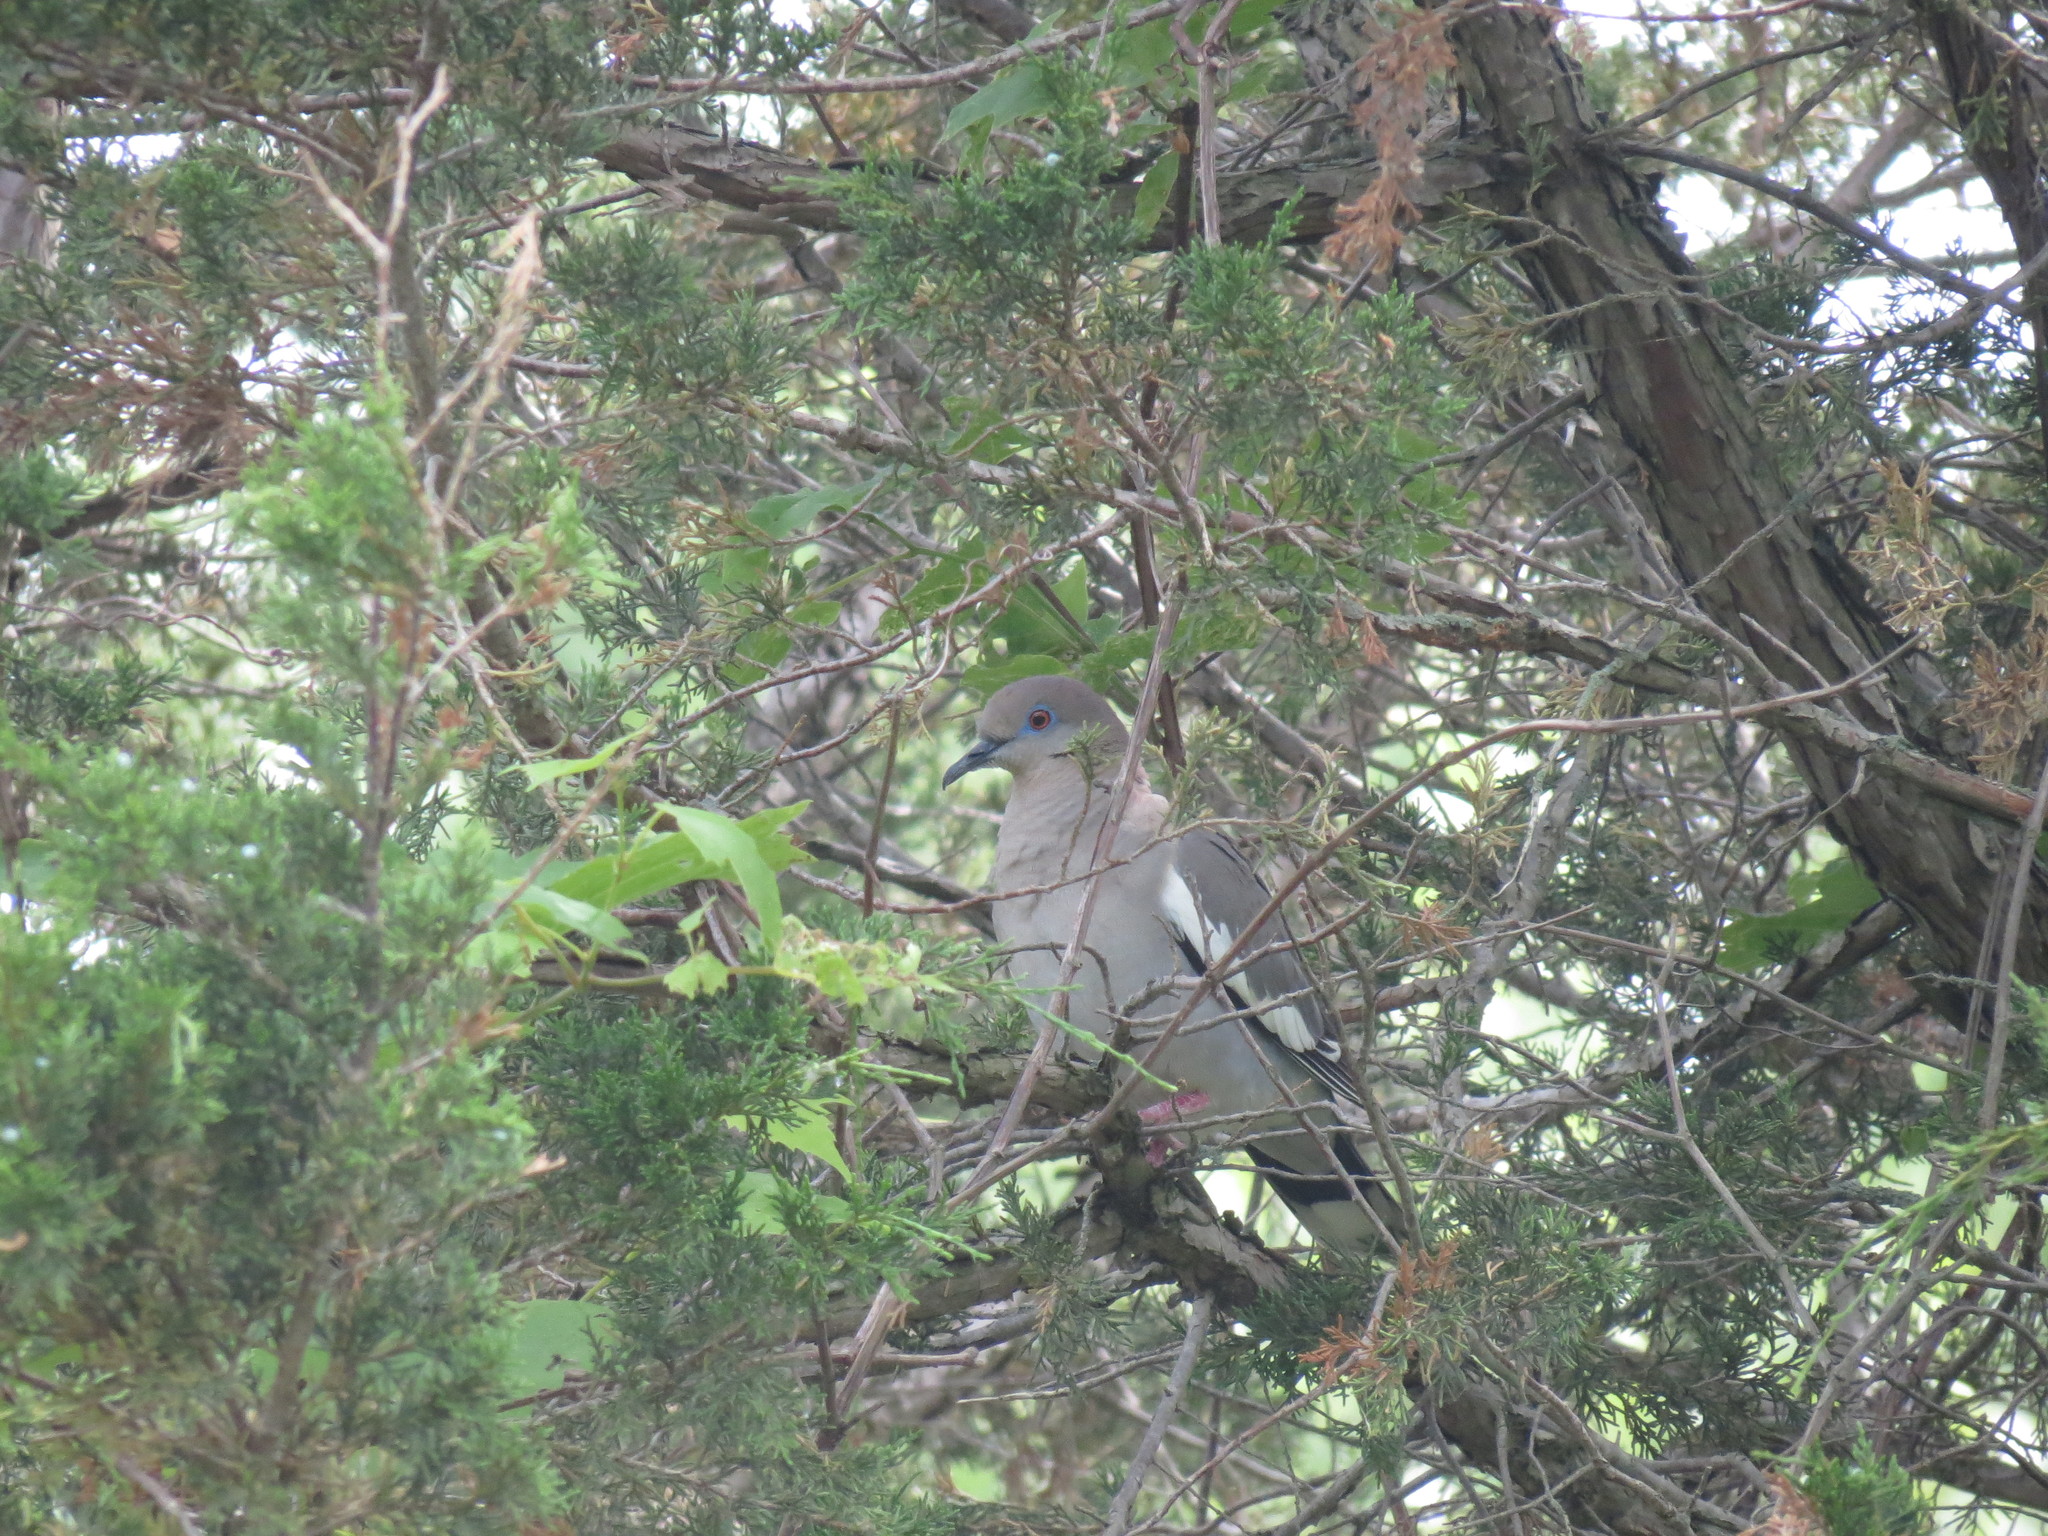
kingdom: Animalia
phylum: Chordata
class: Aves
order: Columbiformes
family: Columbidae
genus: Zenaida
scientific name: Zenaida asiatica
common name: White-winged dove
